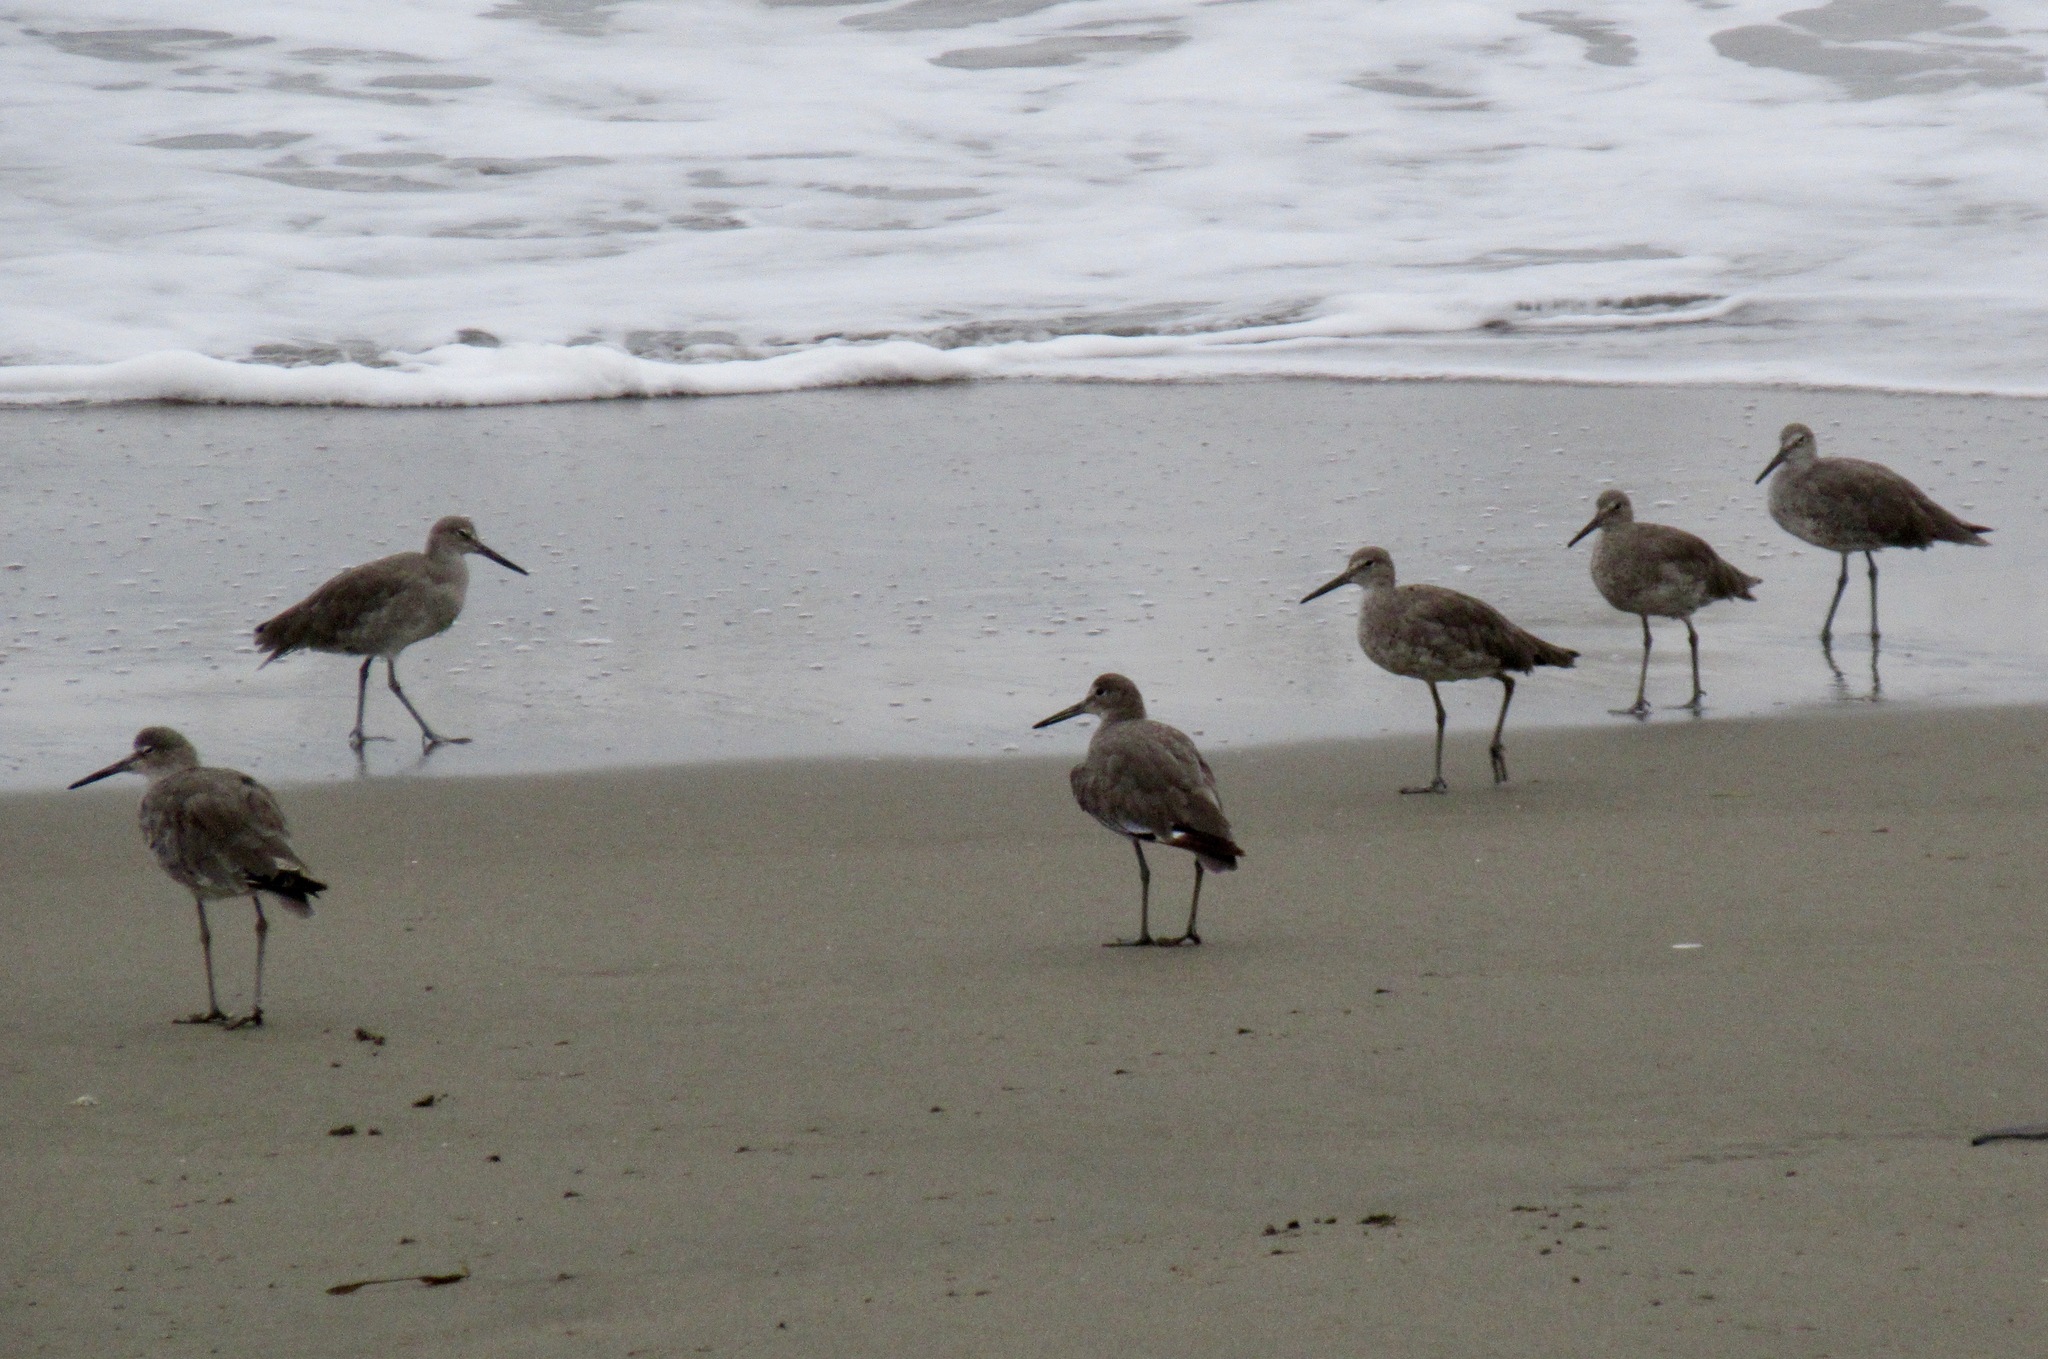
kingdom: Animalia
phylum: Chordata
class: Aves
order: Charadriiformes
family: Scolopacidae
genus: Tringa
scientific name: Tringa semipalmata
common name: Willet
